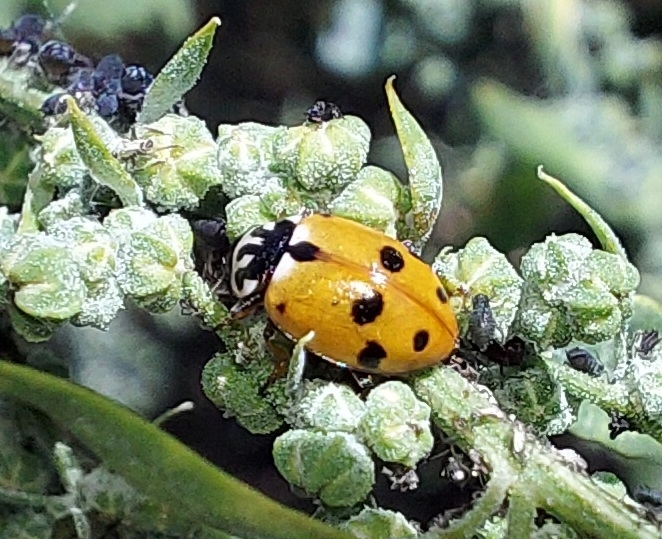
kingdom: Animalia
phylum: Arthropoda
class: Insecta
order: Coleoptera
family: Coccinellidae
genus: Hippodamia
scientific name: Hippodamia variegata
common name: Ladybird beetle
